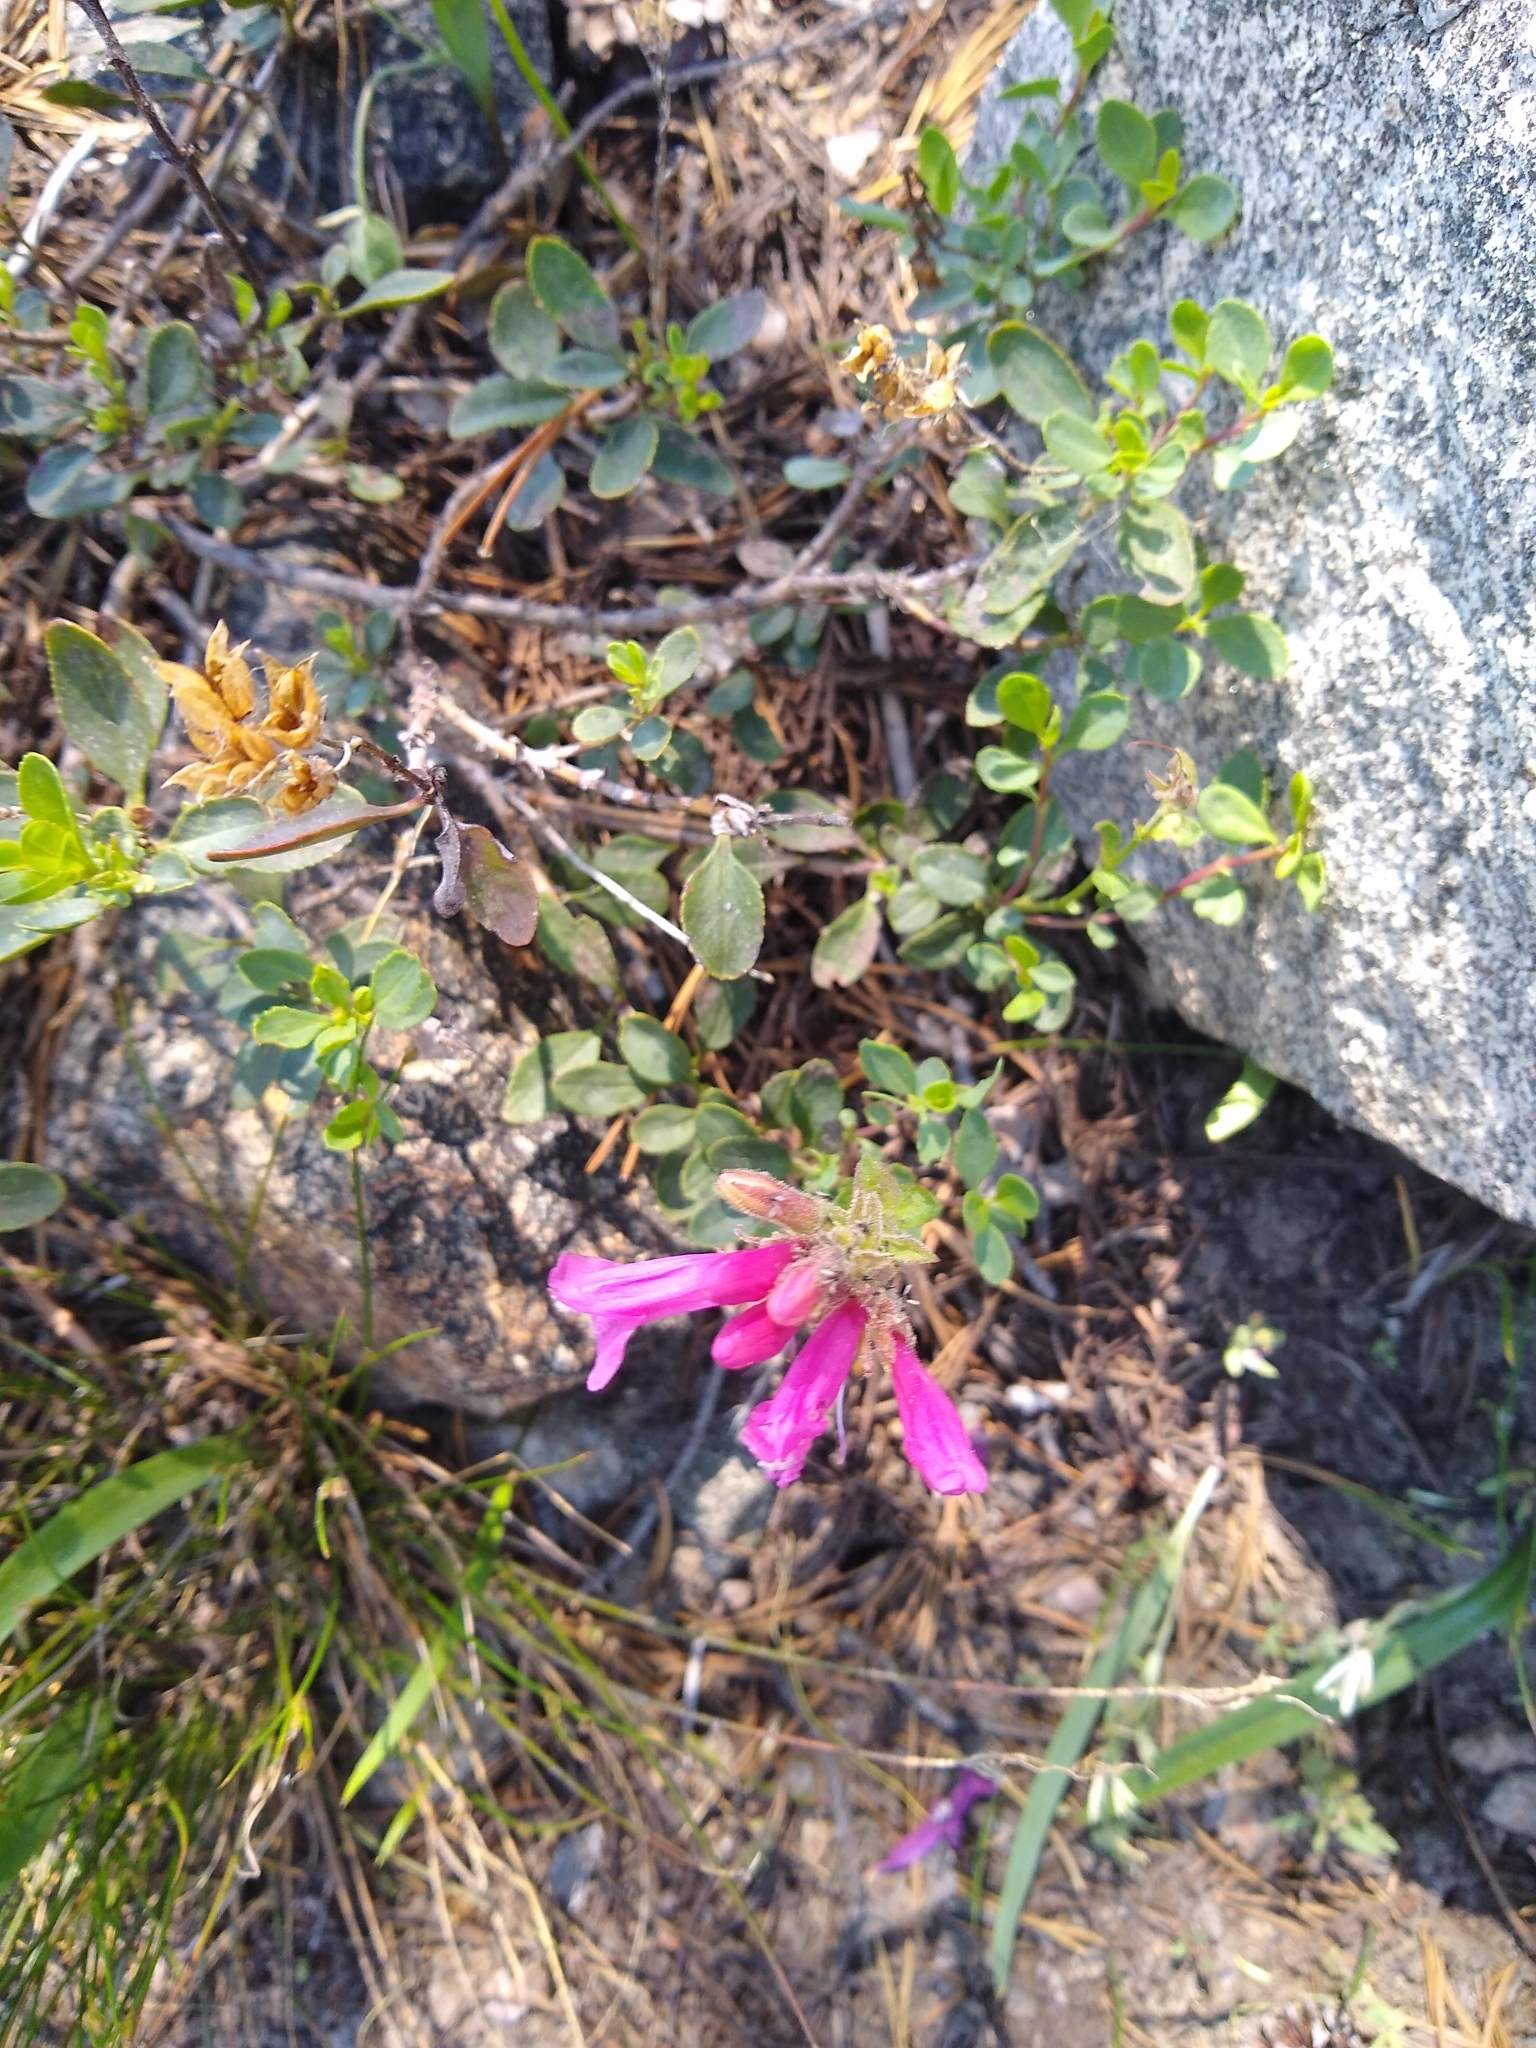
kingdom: Plantae
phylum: Tracheophyta
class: Magnoliopsida
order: Lamiales
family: Plantaginaceae
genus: Penstemon
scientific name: Penstemon newberryi
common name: Mountain-pride
